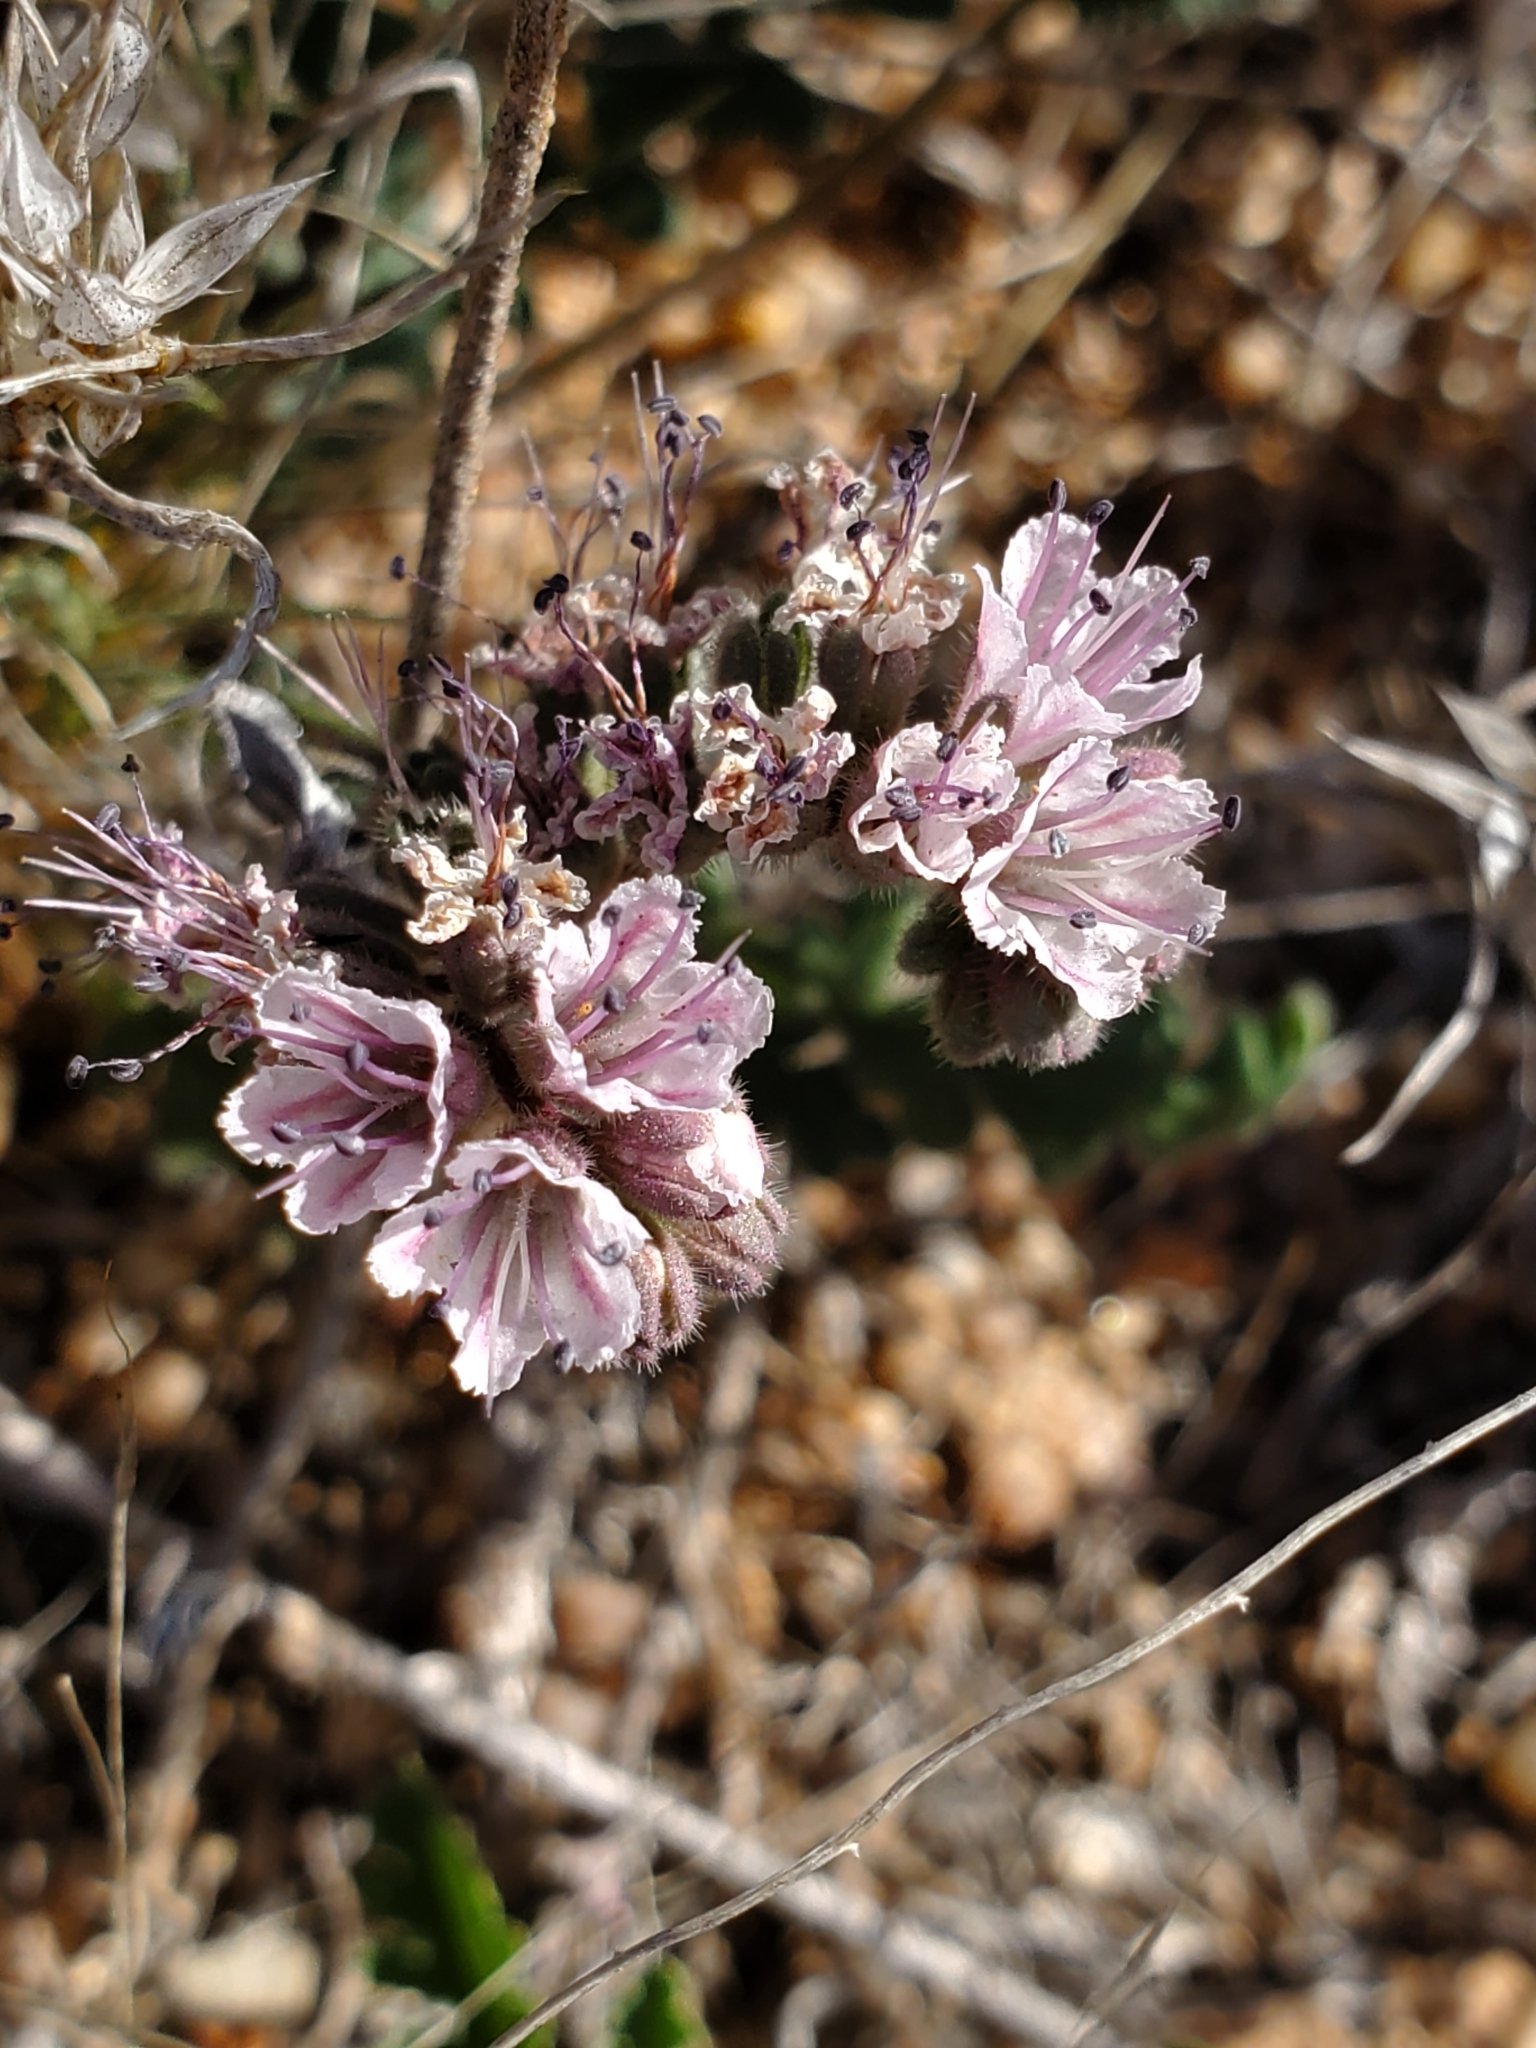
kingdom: Plantae
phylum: Tracheophyta
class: Magnoliopsida
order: Boraginales
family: Hydrophyllaceae
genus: Phacelia
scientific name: Phacelia arizonica
